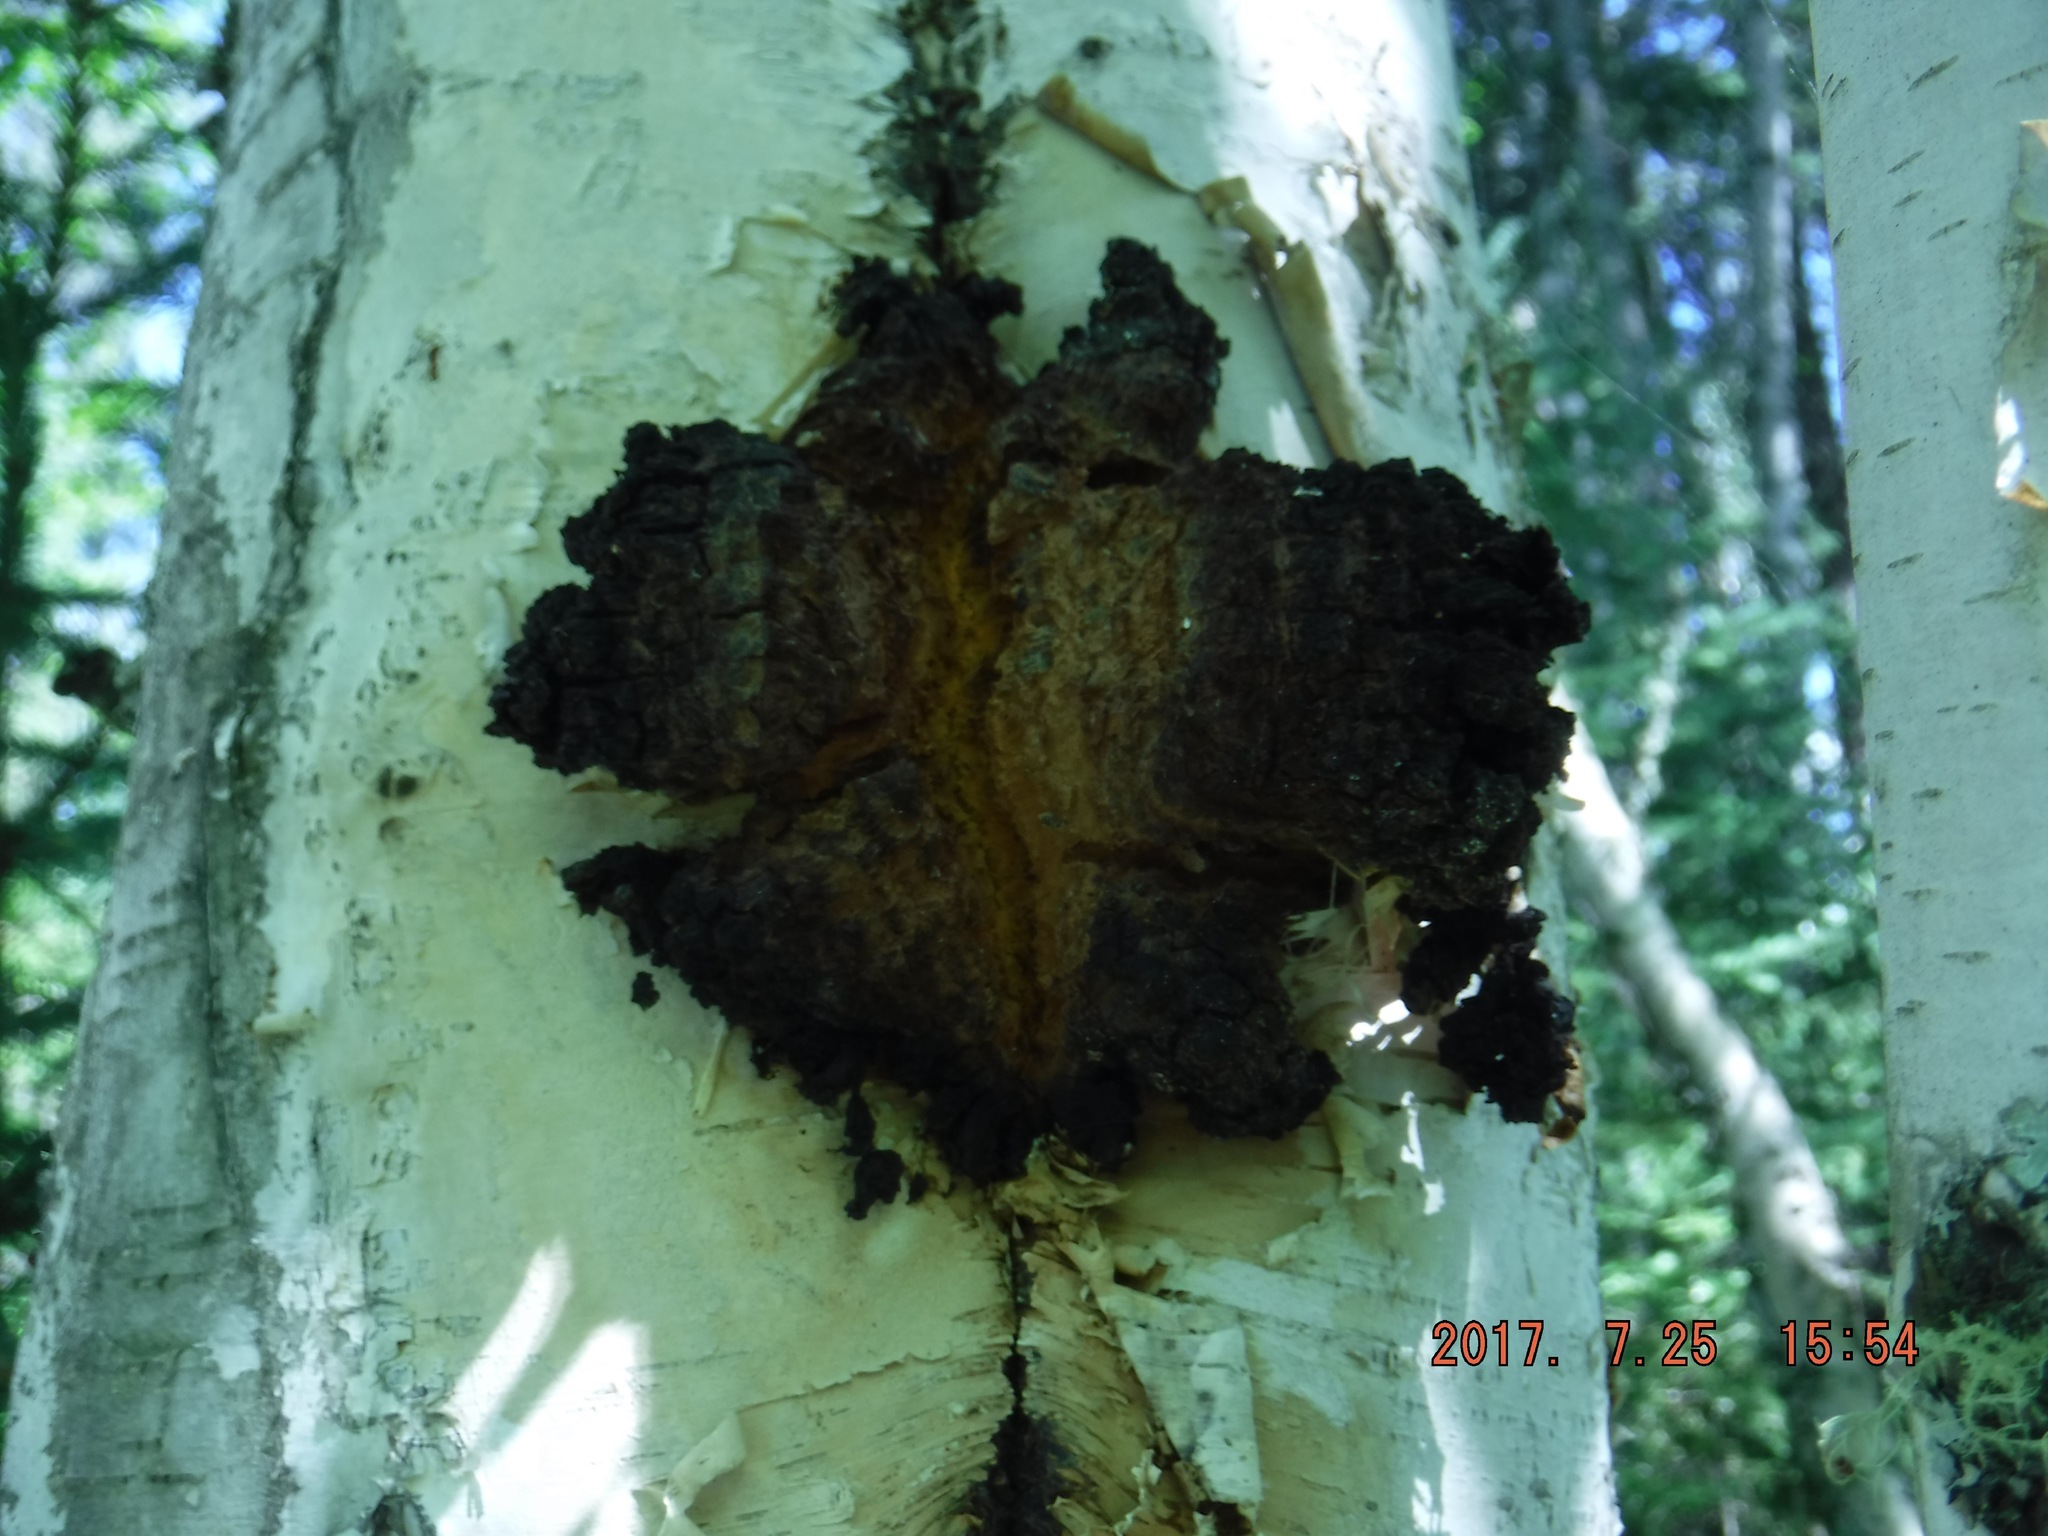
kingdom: Fungi
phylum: Basidiomycota
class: Agaricomycetes
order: Hymenochaetales
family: Hymenochaetaceae
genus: Inonotus
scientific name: Inonotus obliquus
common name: Chaga
